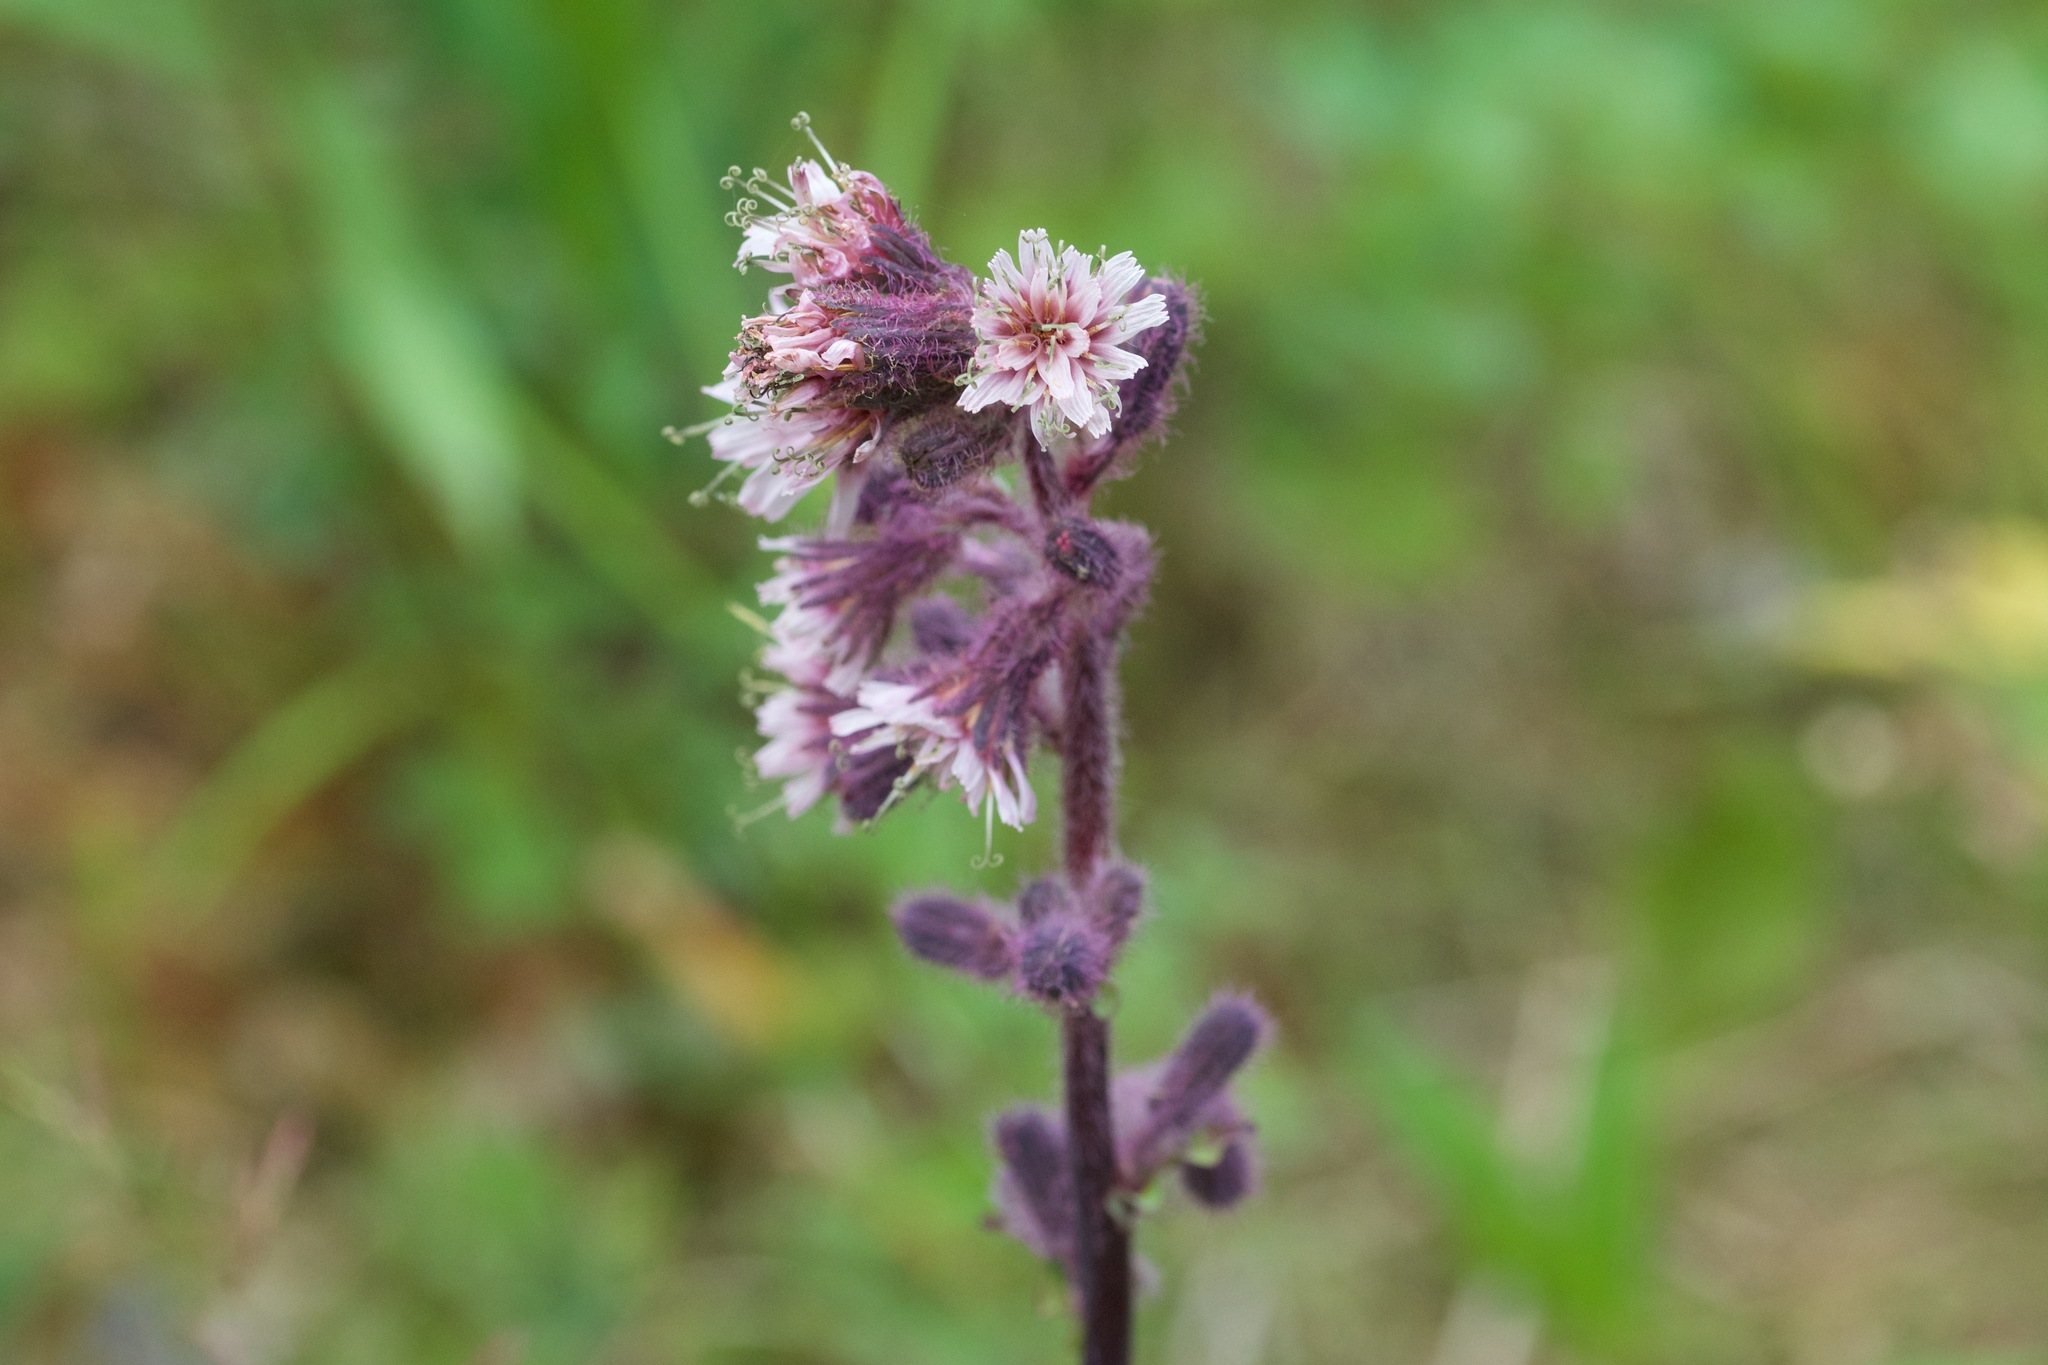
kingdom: Plantae
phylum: Tracheophyta
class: Magnoliopsida
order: Asterales
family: Asteraceae
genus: Nabalus
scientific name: Nabalus racemosus
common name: Glaucous white lettuce
